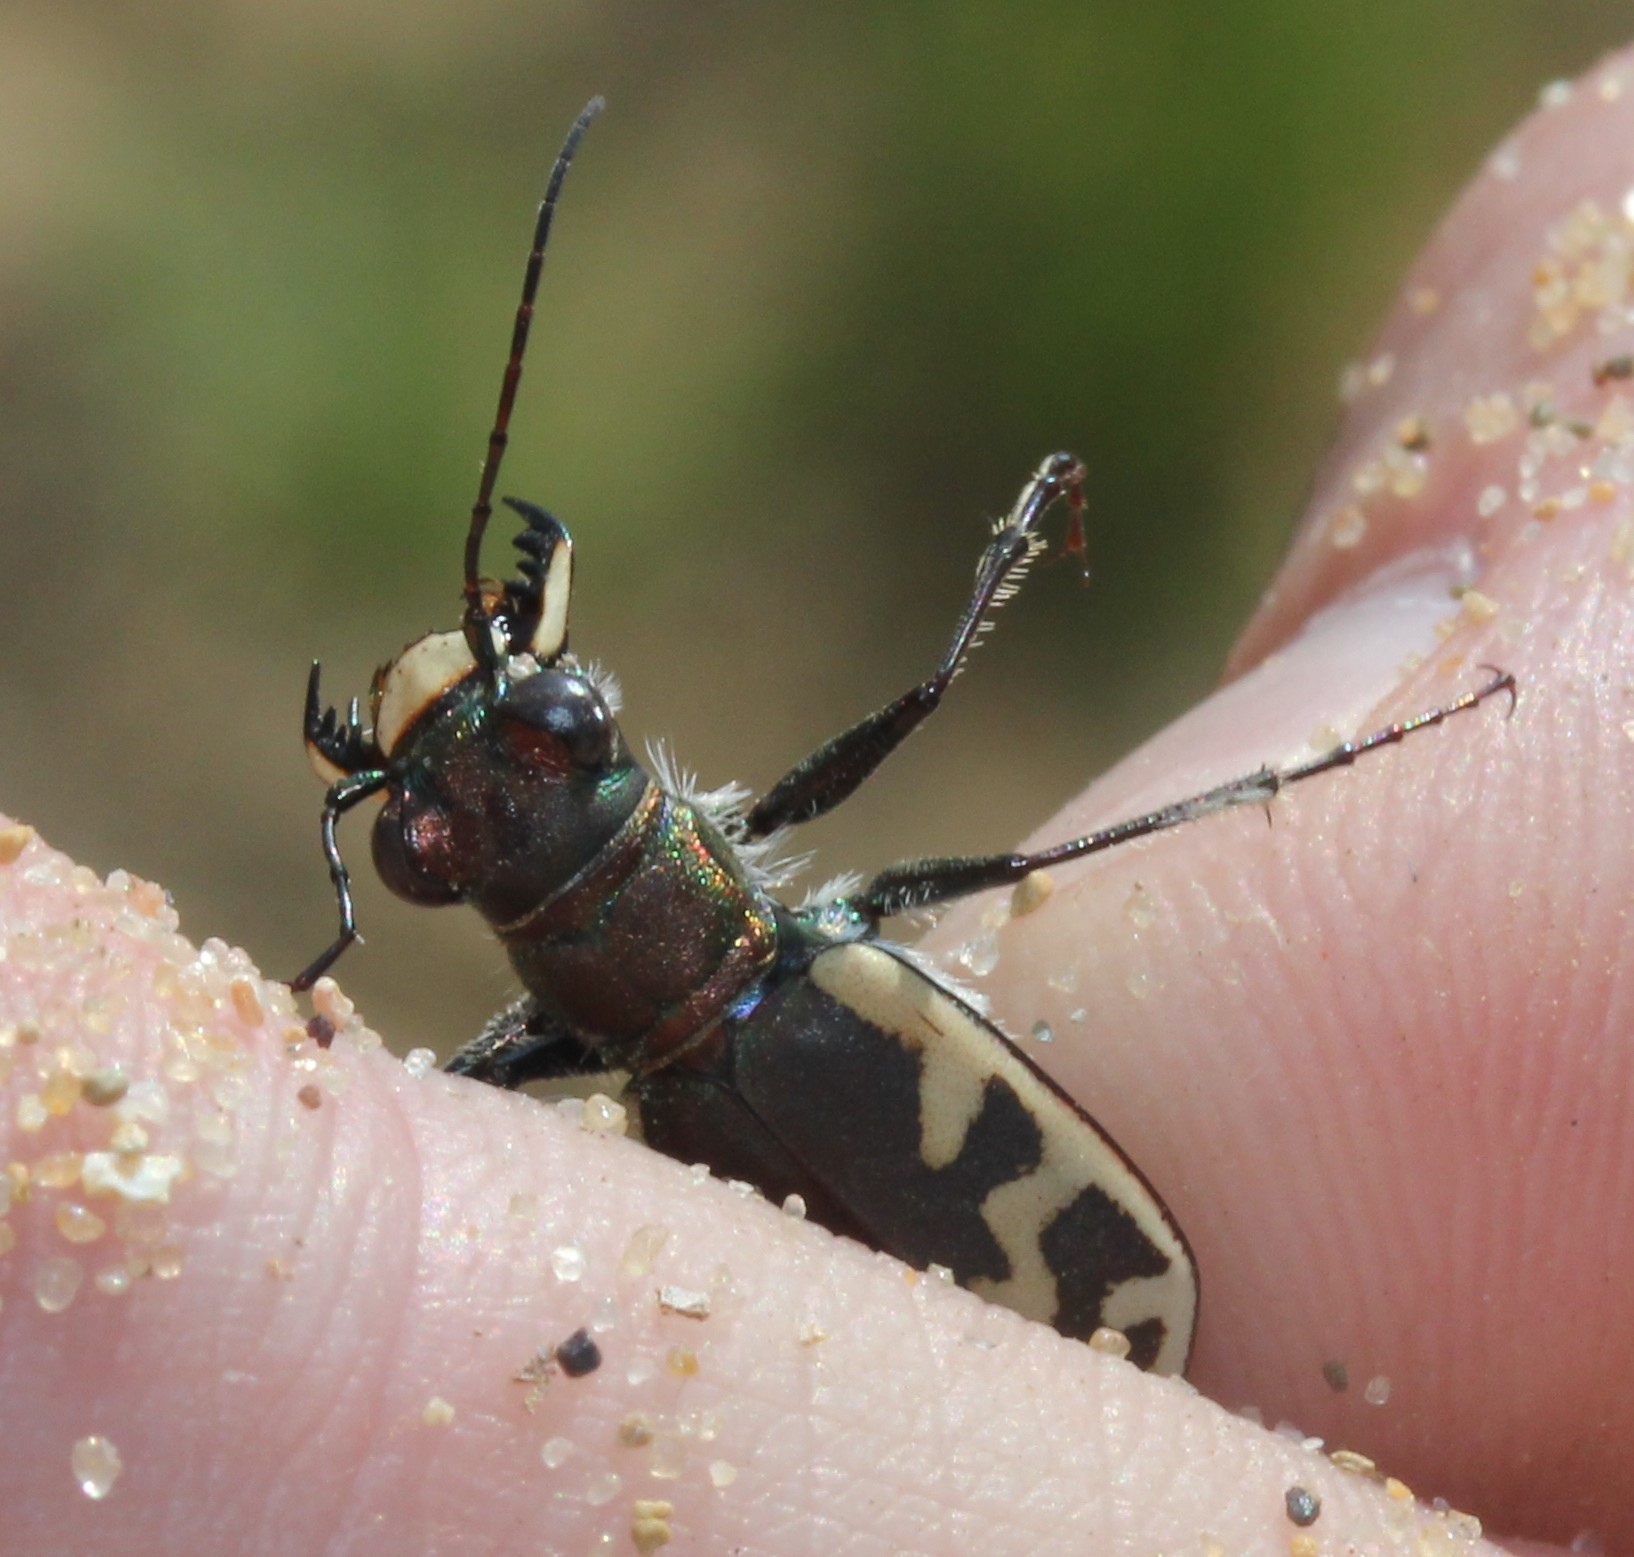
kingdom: Animalia
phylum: Arthropoda
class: Insecta
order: Coleoptera
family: Carabidae
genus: Cicindela
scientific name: Cicindela formosa
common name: Big sand tiger beetle
